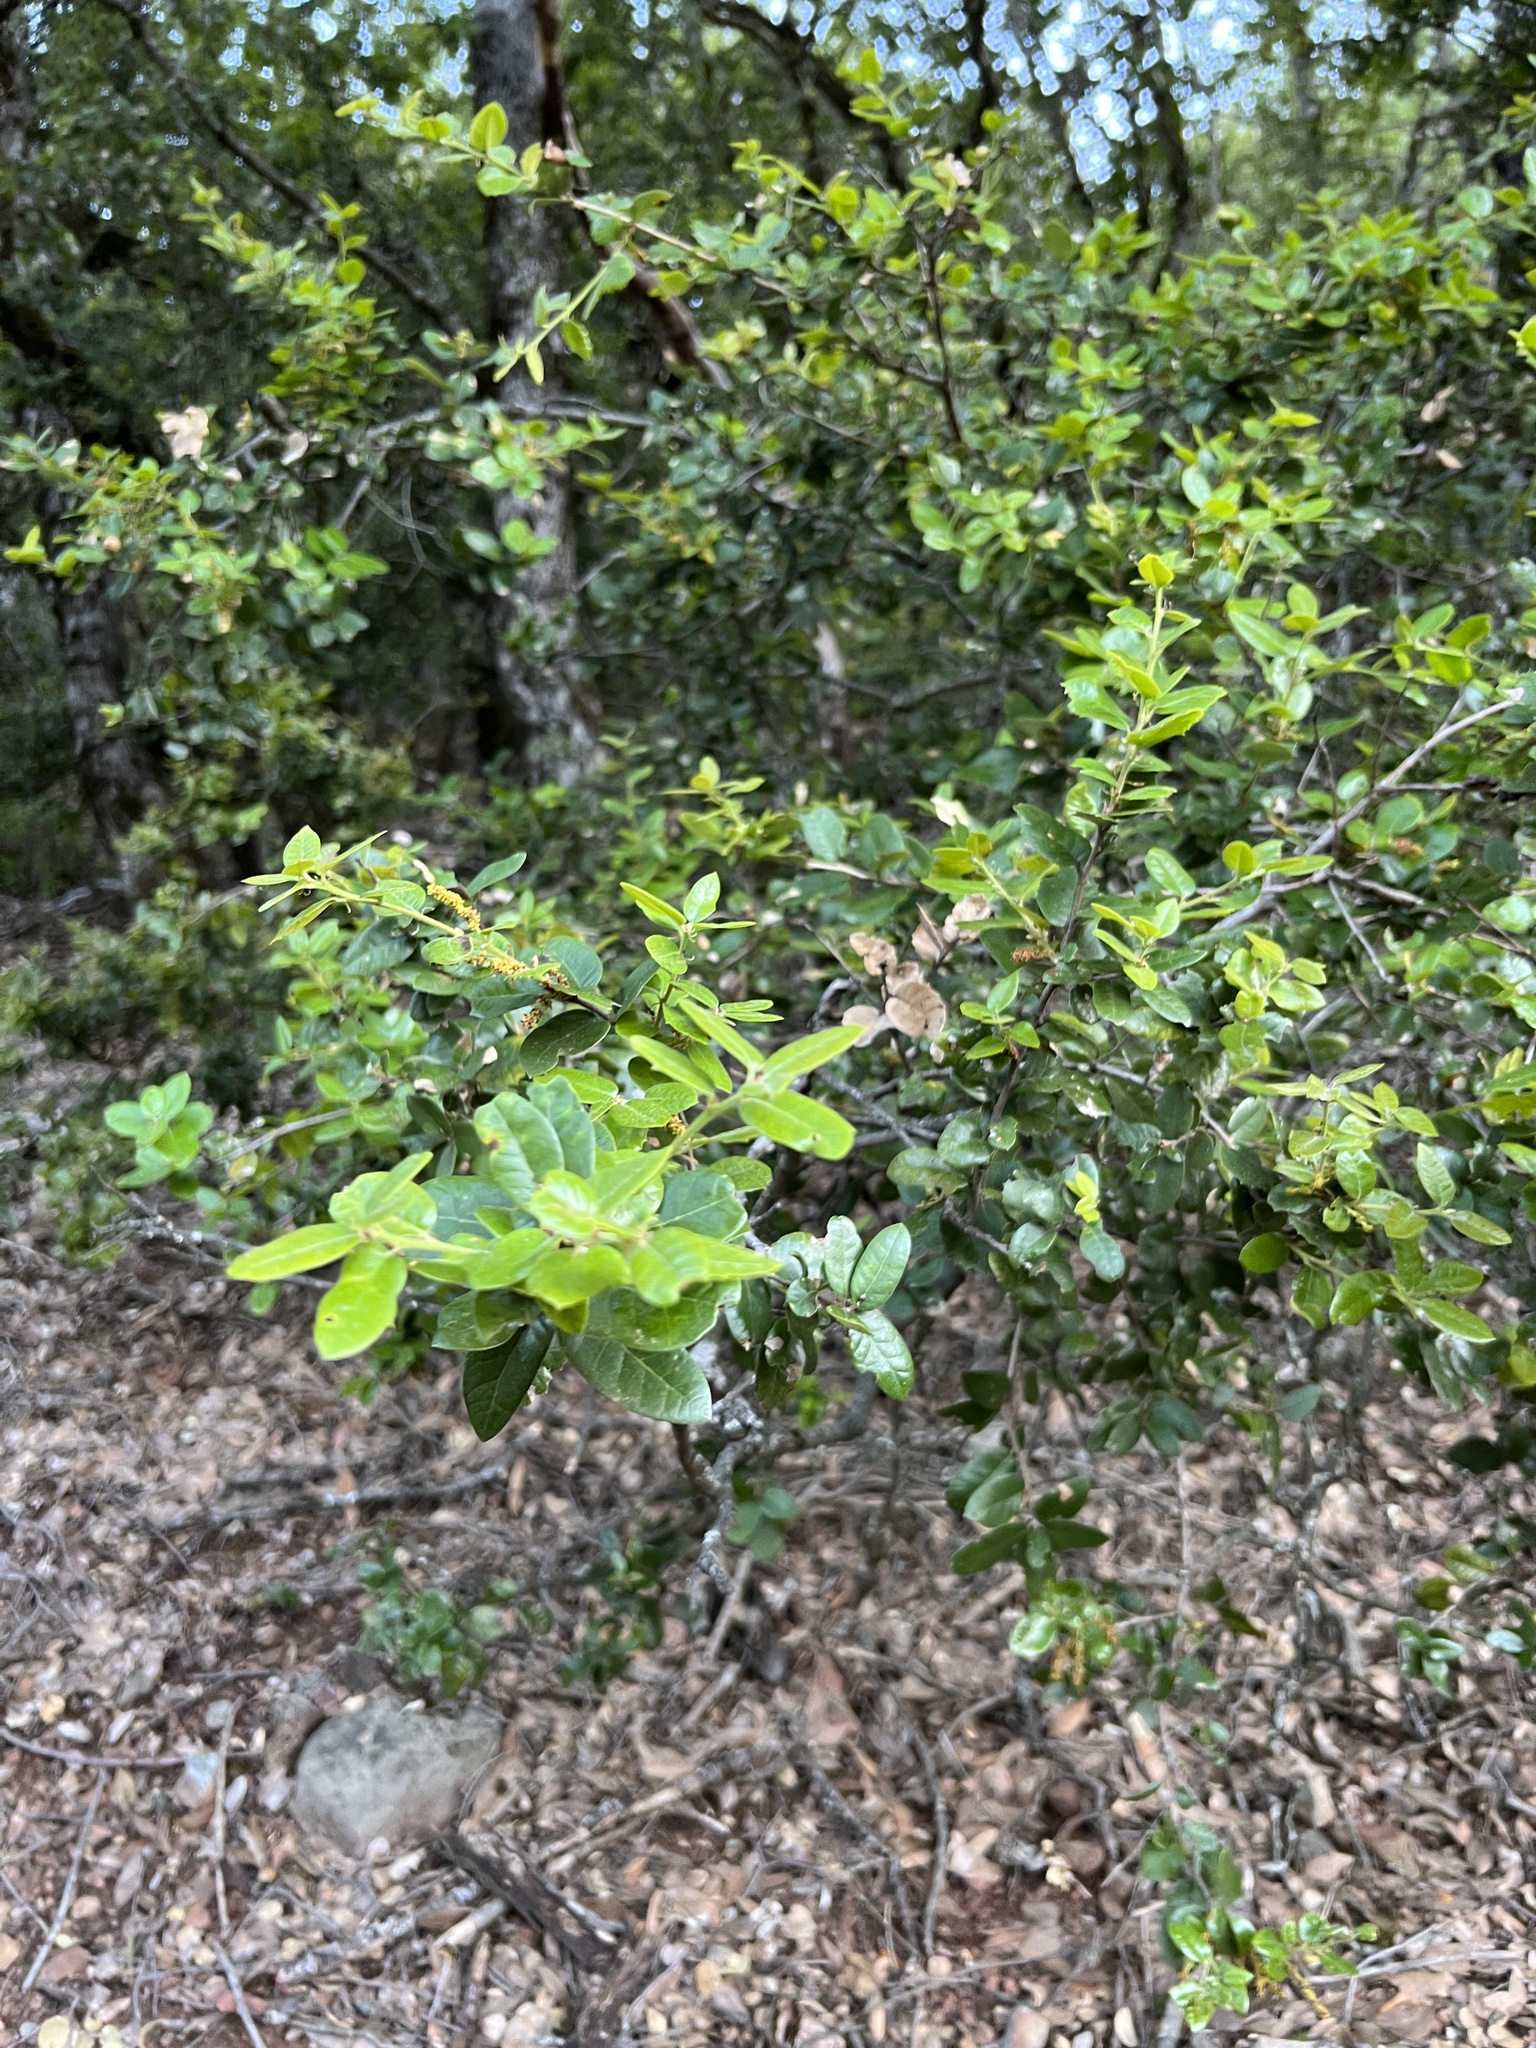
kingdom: Plantae
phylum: Tracheophyta
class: Magnoliopsida
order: Fagales
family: Fagaceae
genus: Quercus
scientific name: Quercus chrysolepis
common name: Canyon live oak
